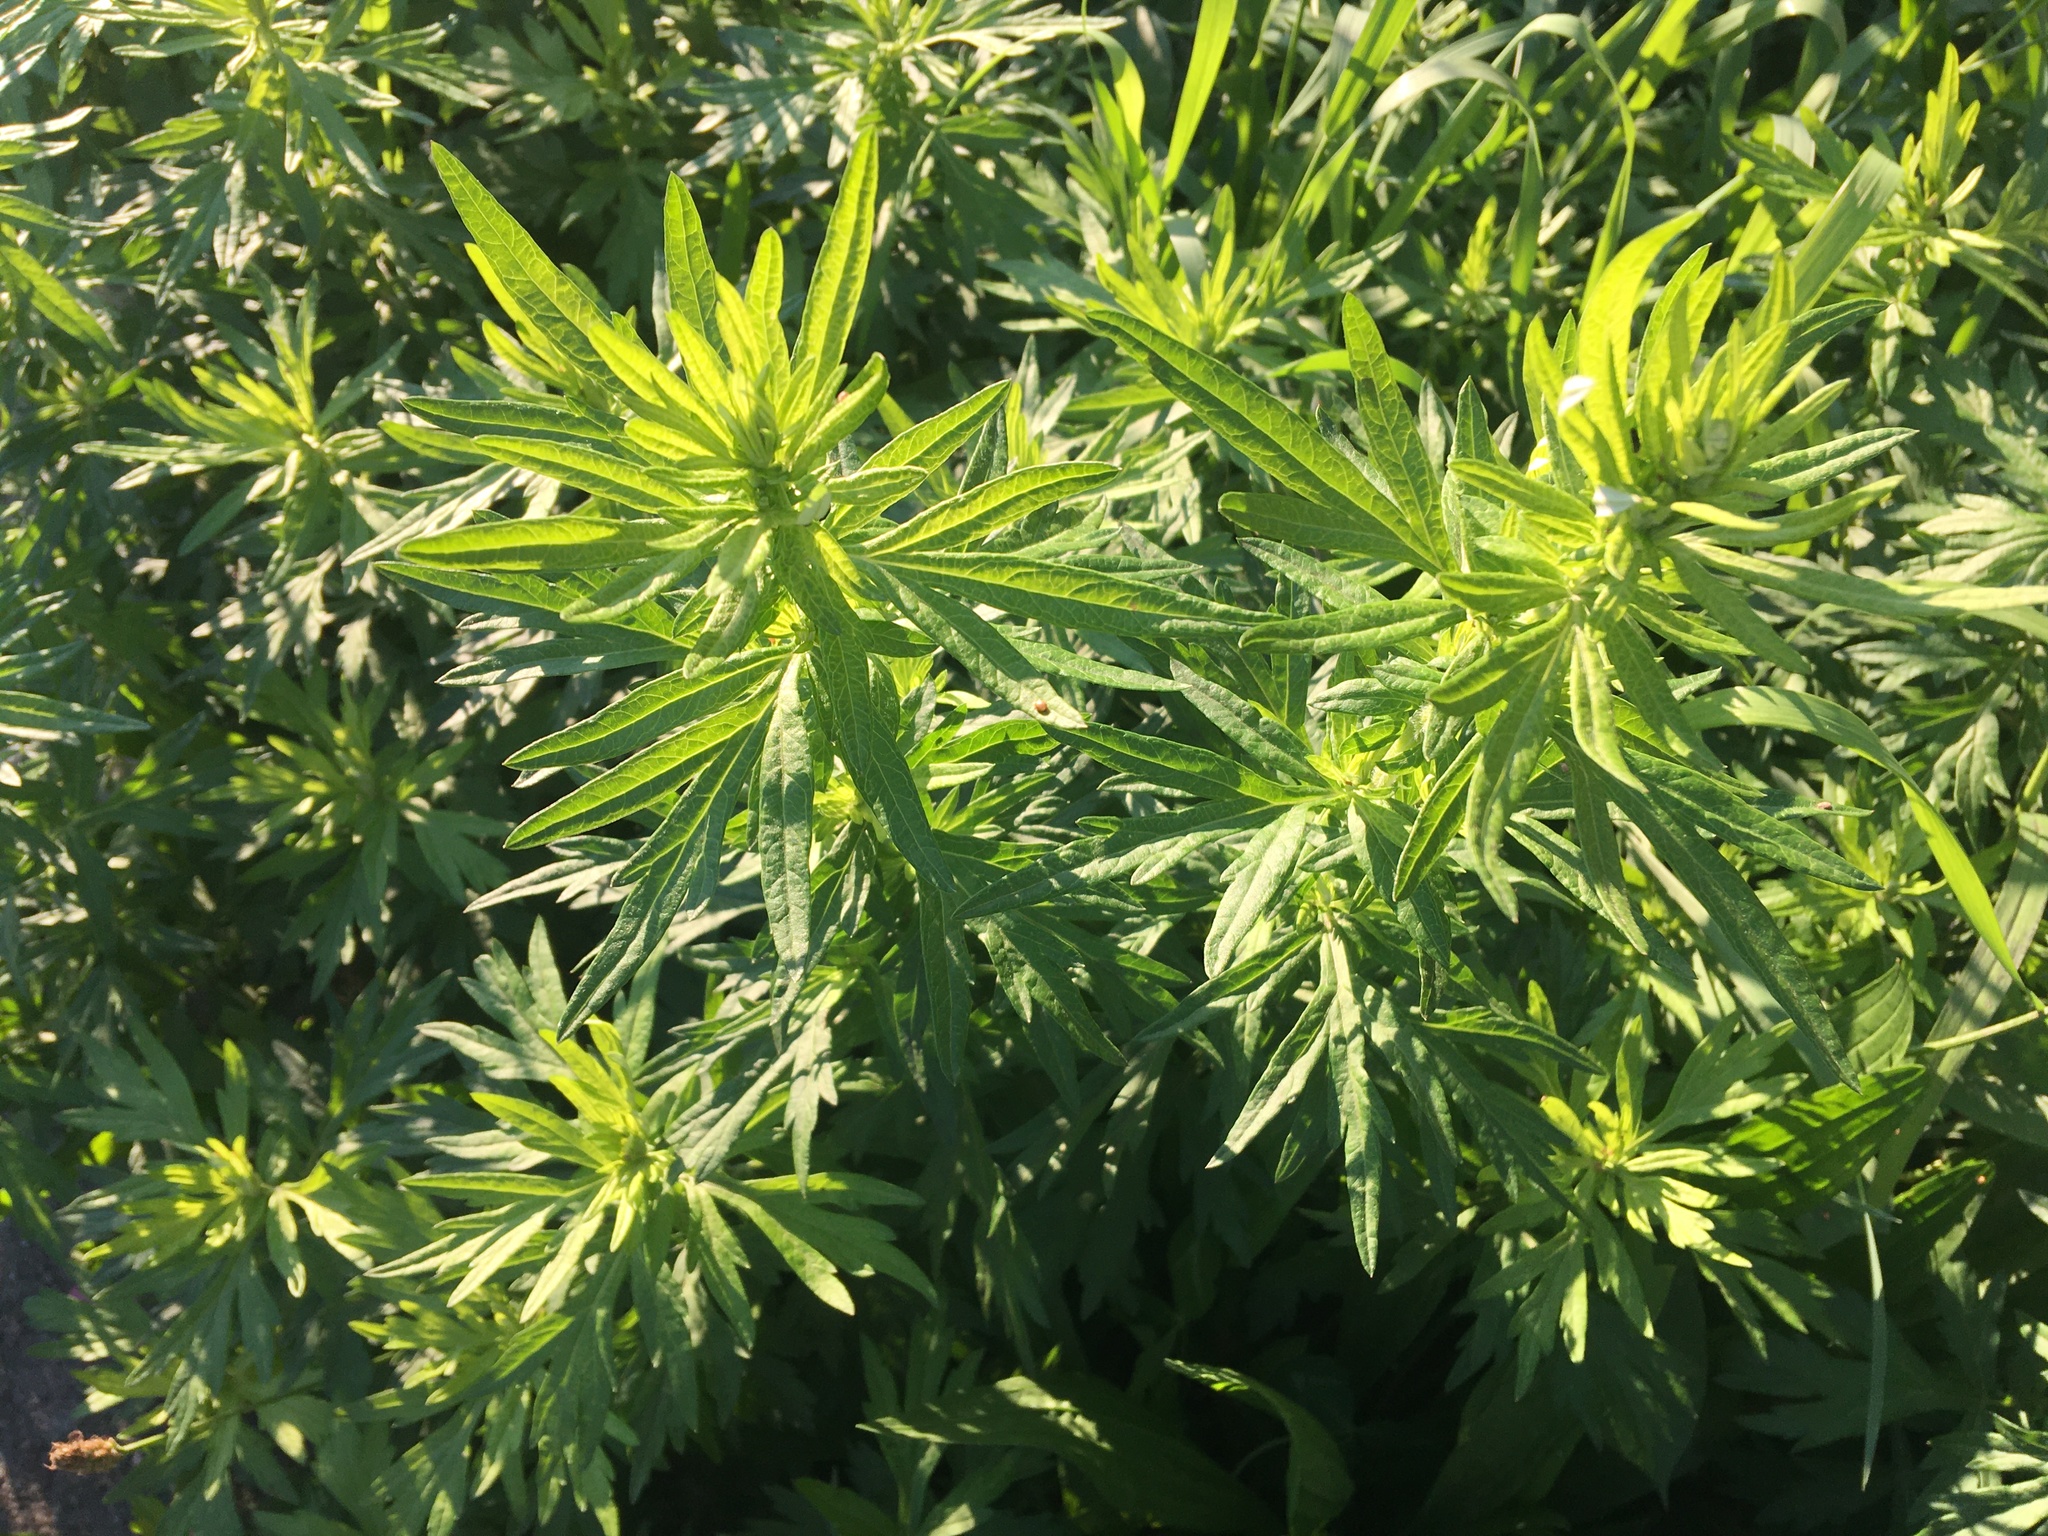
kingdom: Plantae
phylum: Tracheophyta
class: Magnoliopsida
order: Asterales
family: Asteraceae
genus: Artemisia
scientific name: Artemisia vulgaris
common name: Mugwort
